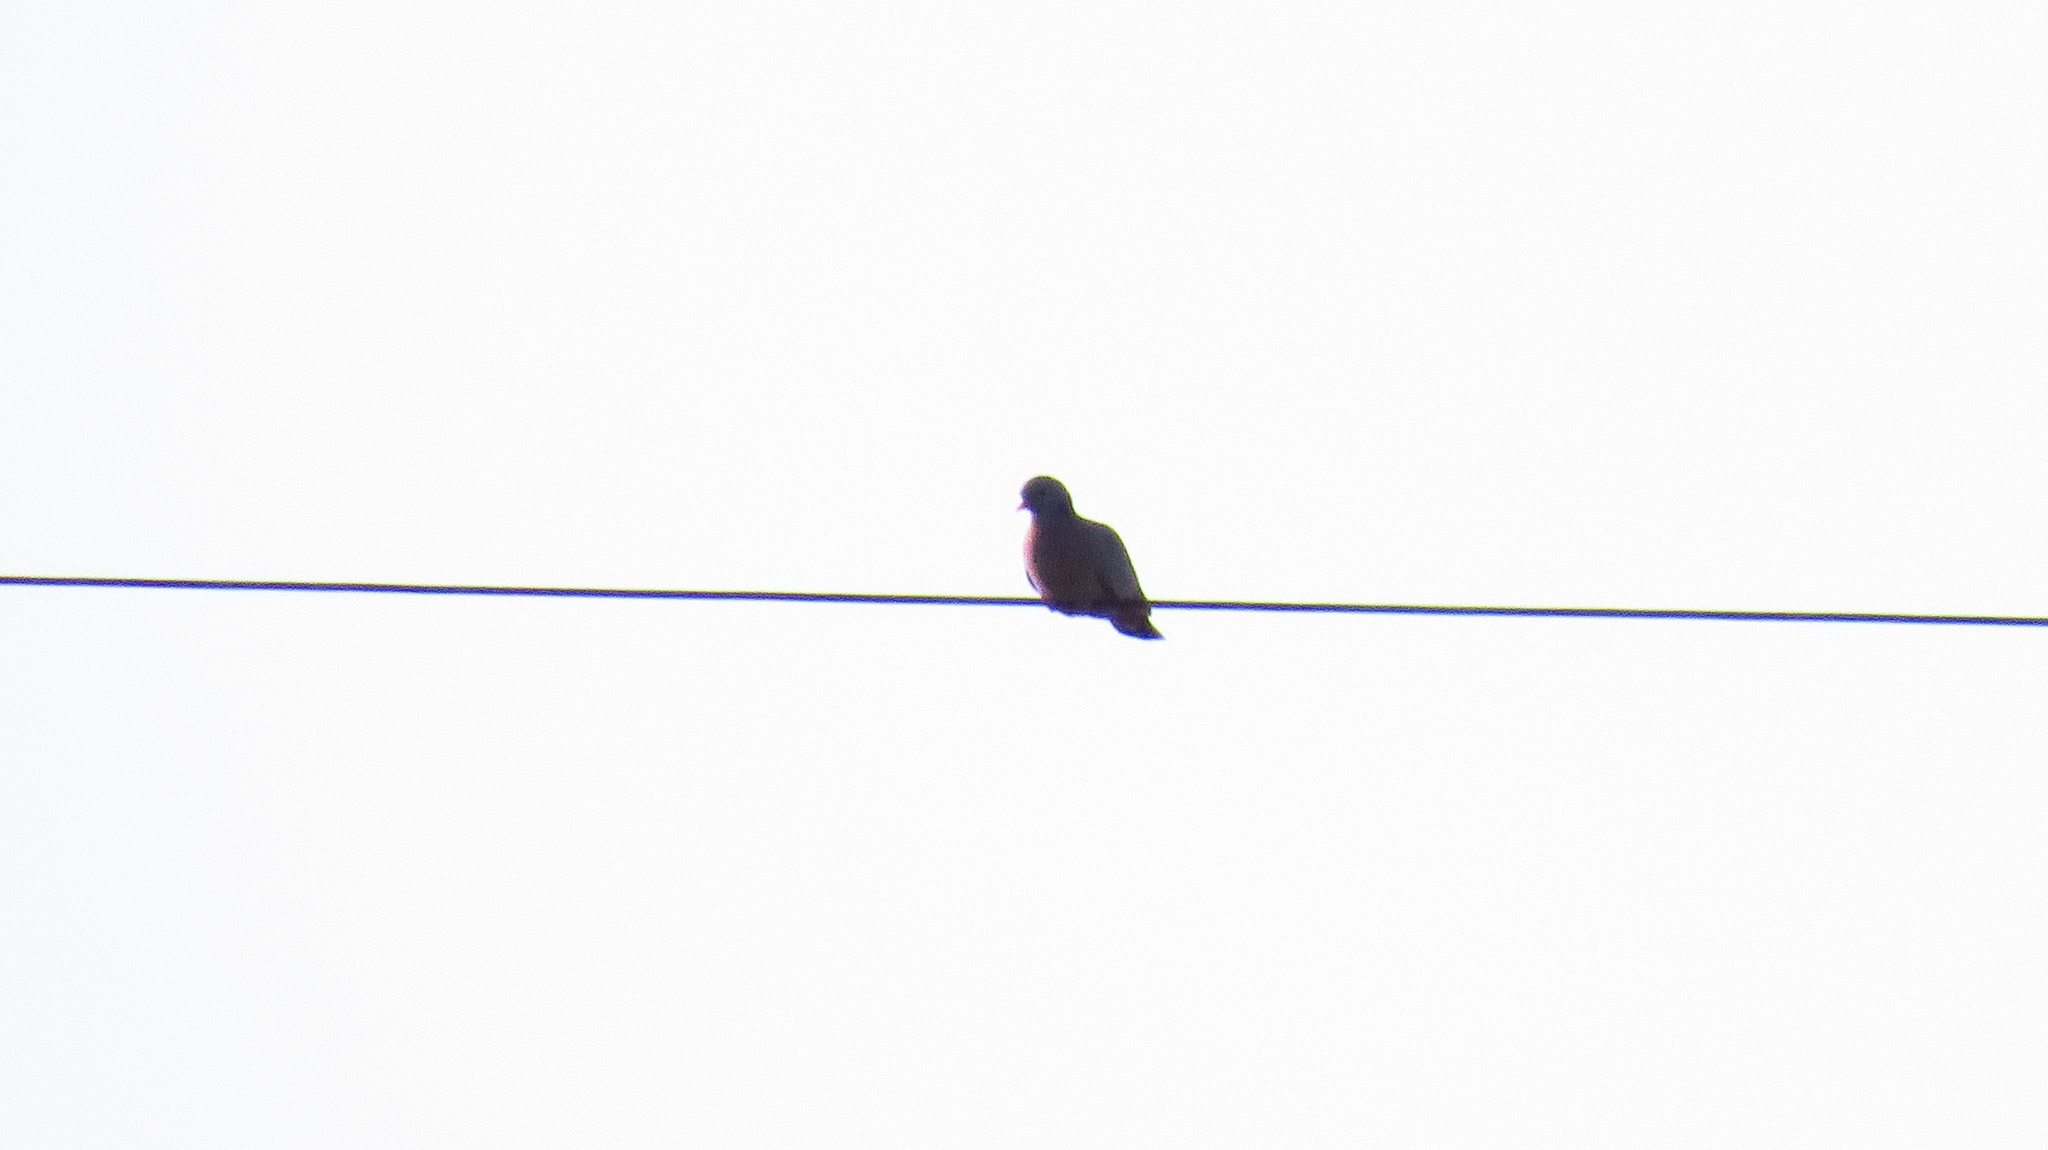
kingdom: Animalia
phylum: Chordata
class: Aves
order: Columbiformes
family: Columbidae
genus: Columba
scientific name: Columba oenas
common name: Stock dove
